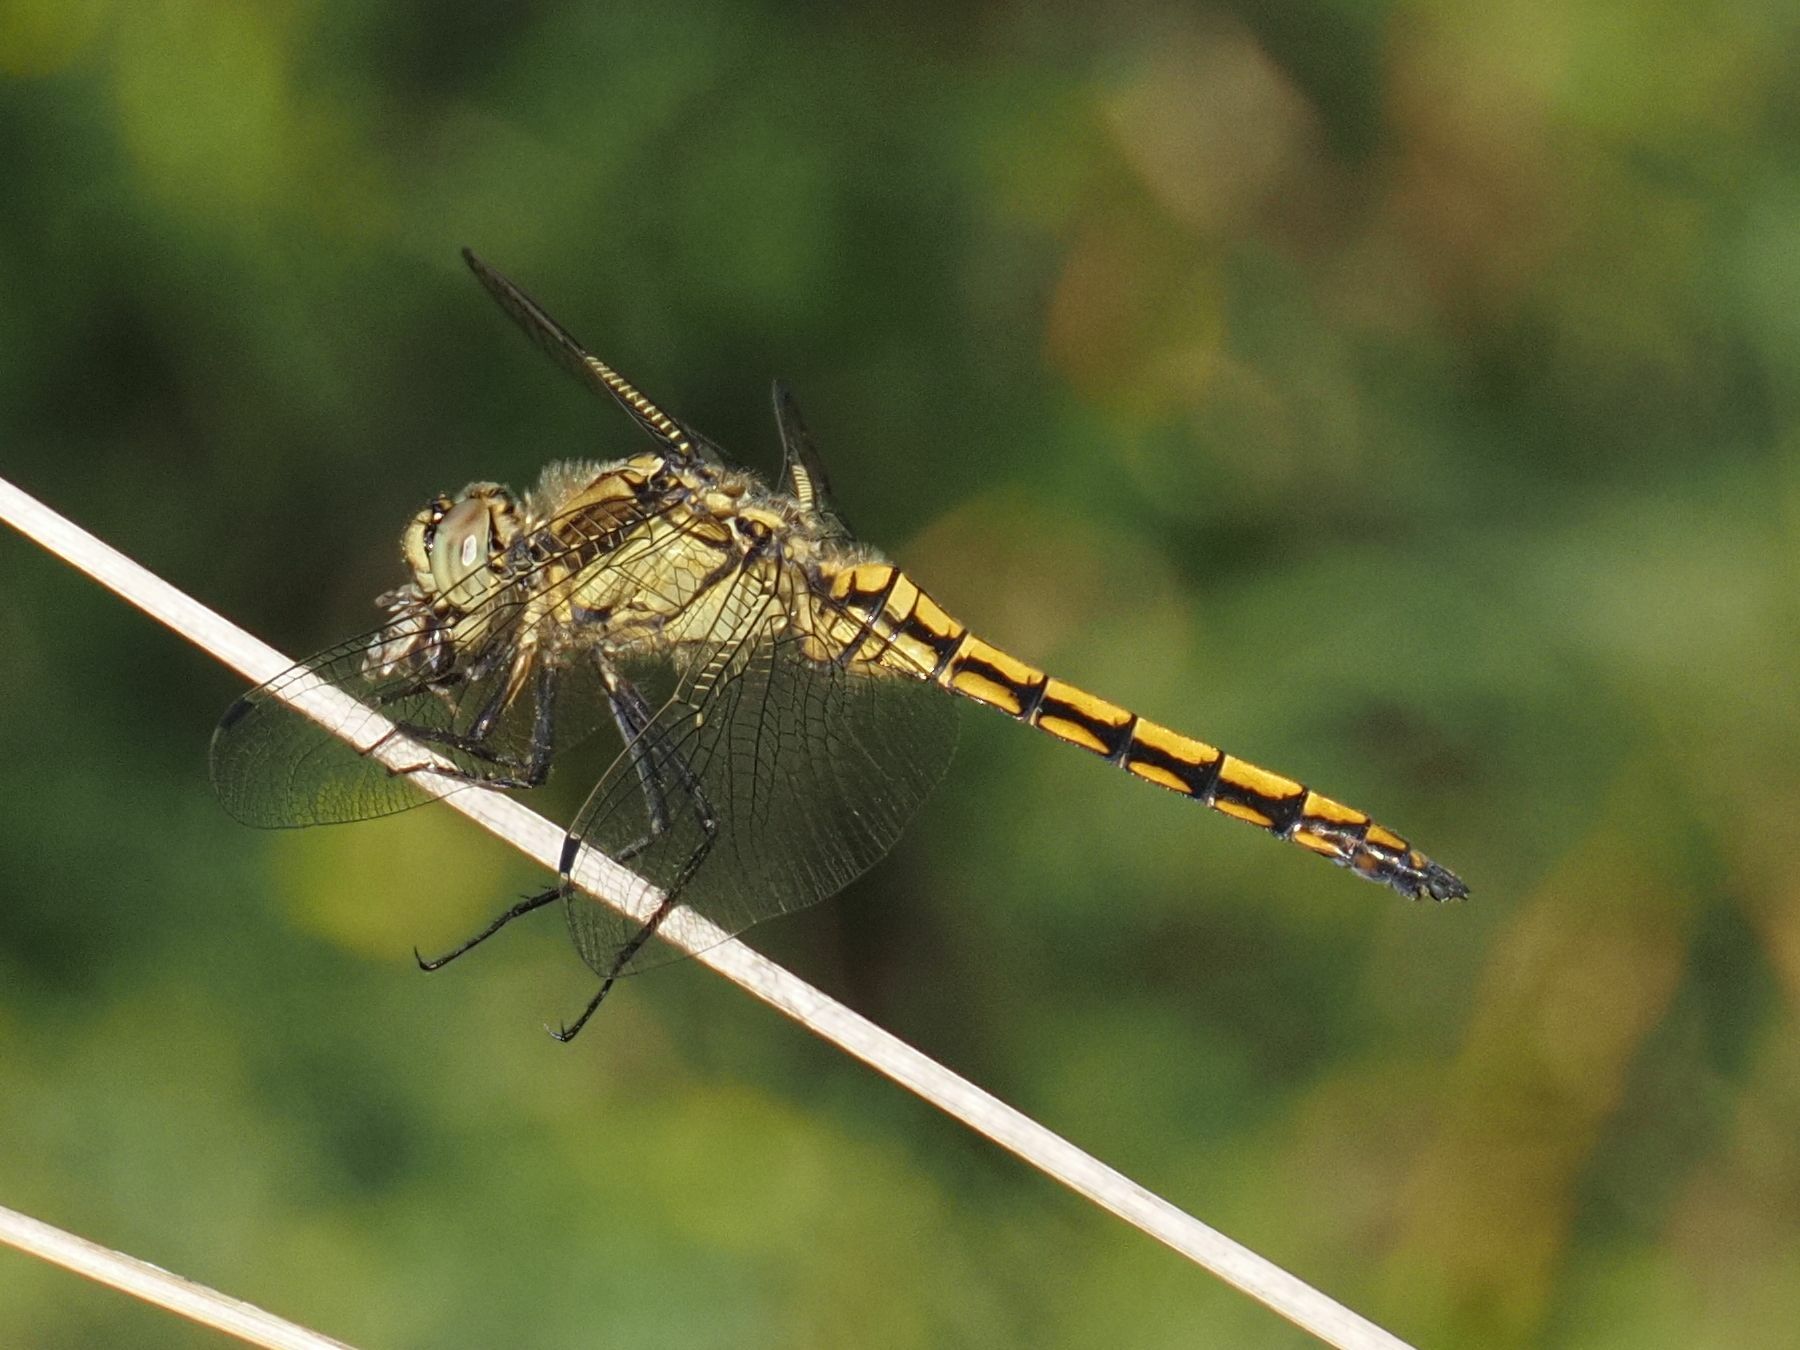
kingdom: Animalia
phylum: Arthropoda
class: Insecta
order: Odonata
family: Libellulidae
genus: Orthetrum
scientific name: Orthetrum cancellatum
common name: Black-tailed skimmer
